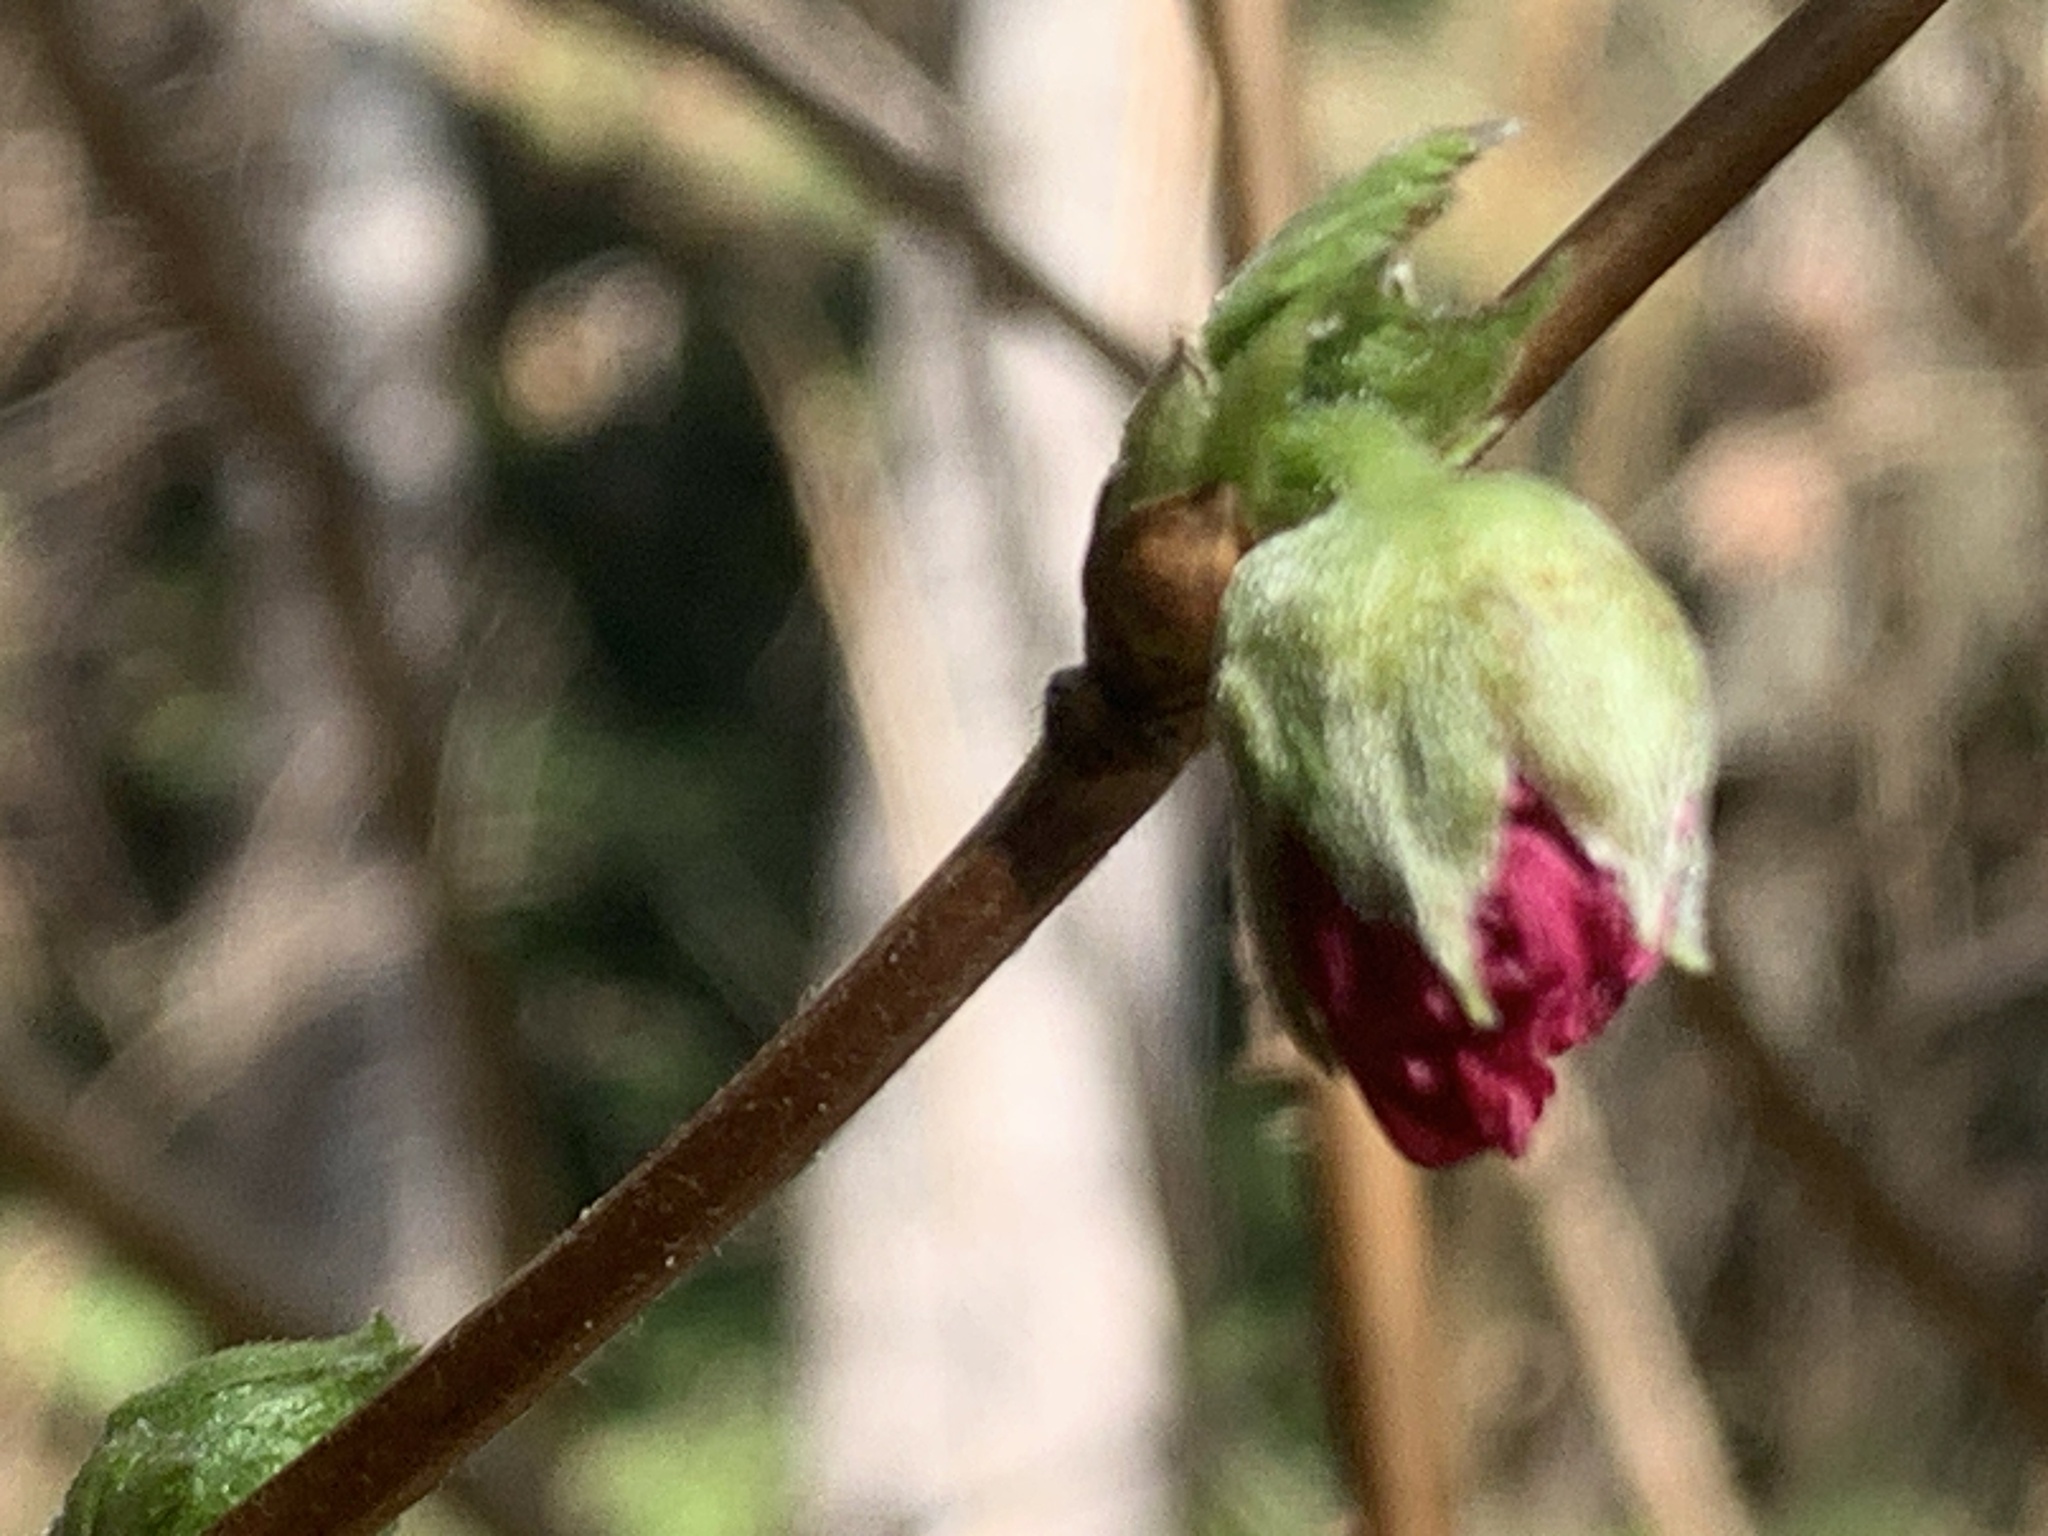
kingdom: Plantae
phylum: Tracheophyta
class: Magnoliopsida
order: Rosales
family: Rosaceae
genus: Rubus
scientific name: Rubus spectabilis
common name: Salmonberry
